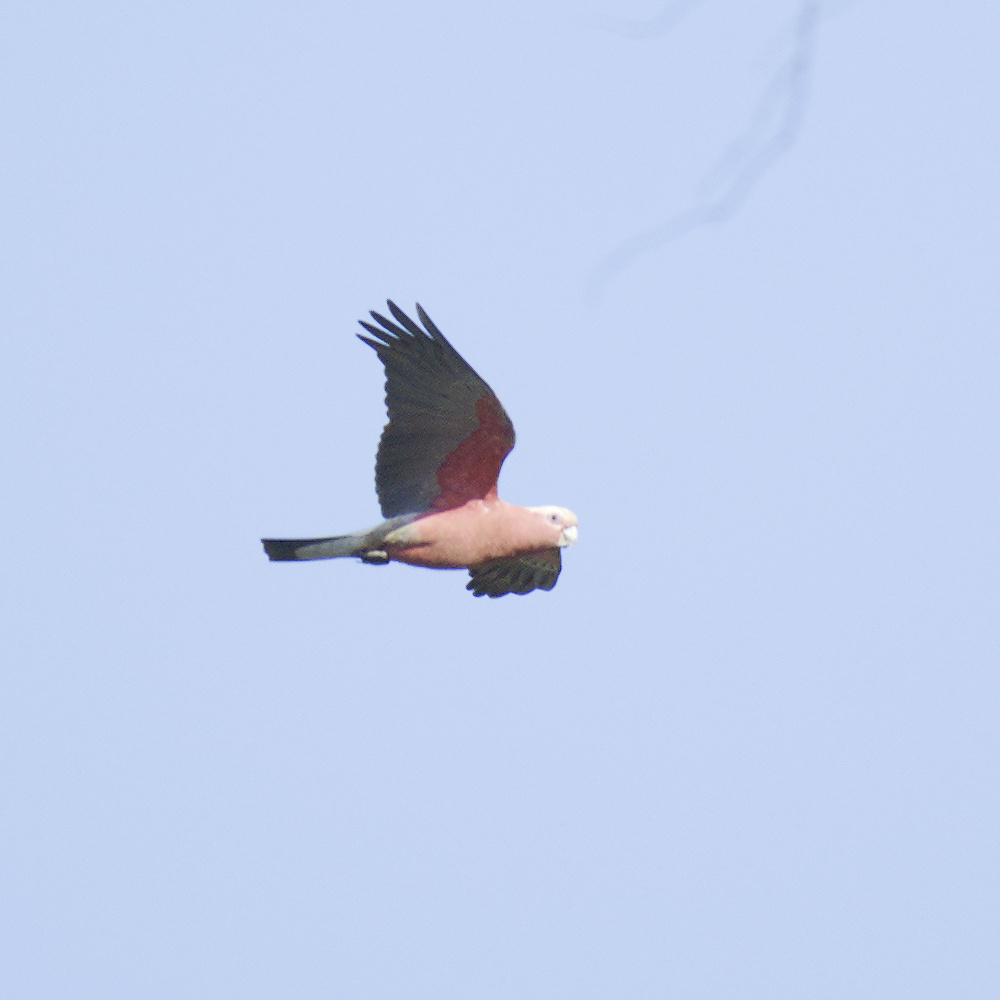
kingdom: Animalia
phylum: Chordata
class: Aves
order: Psittaciformes
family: Psittacidae
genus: Eolophus
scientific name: Eolophus roseicapilla
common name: Galah
